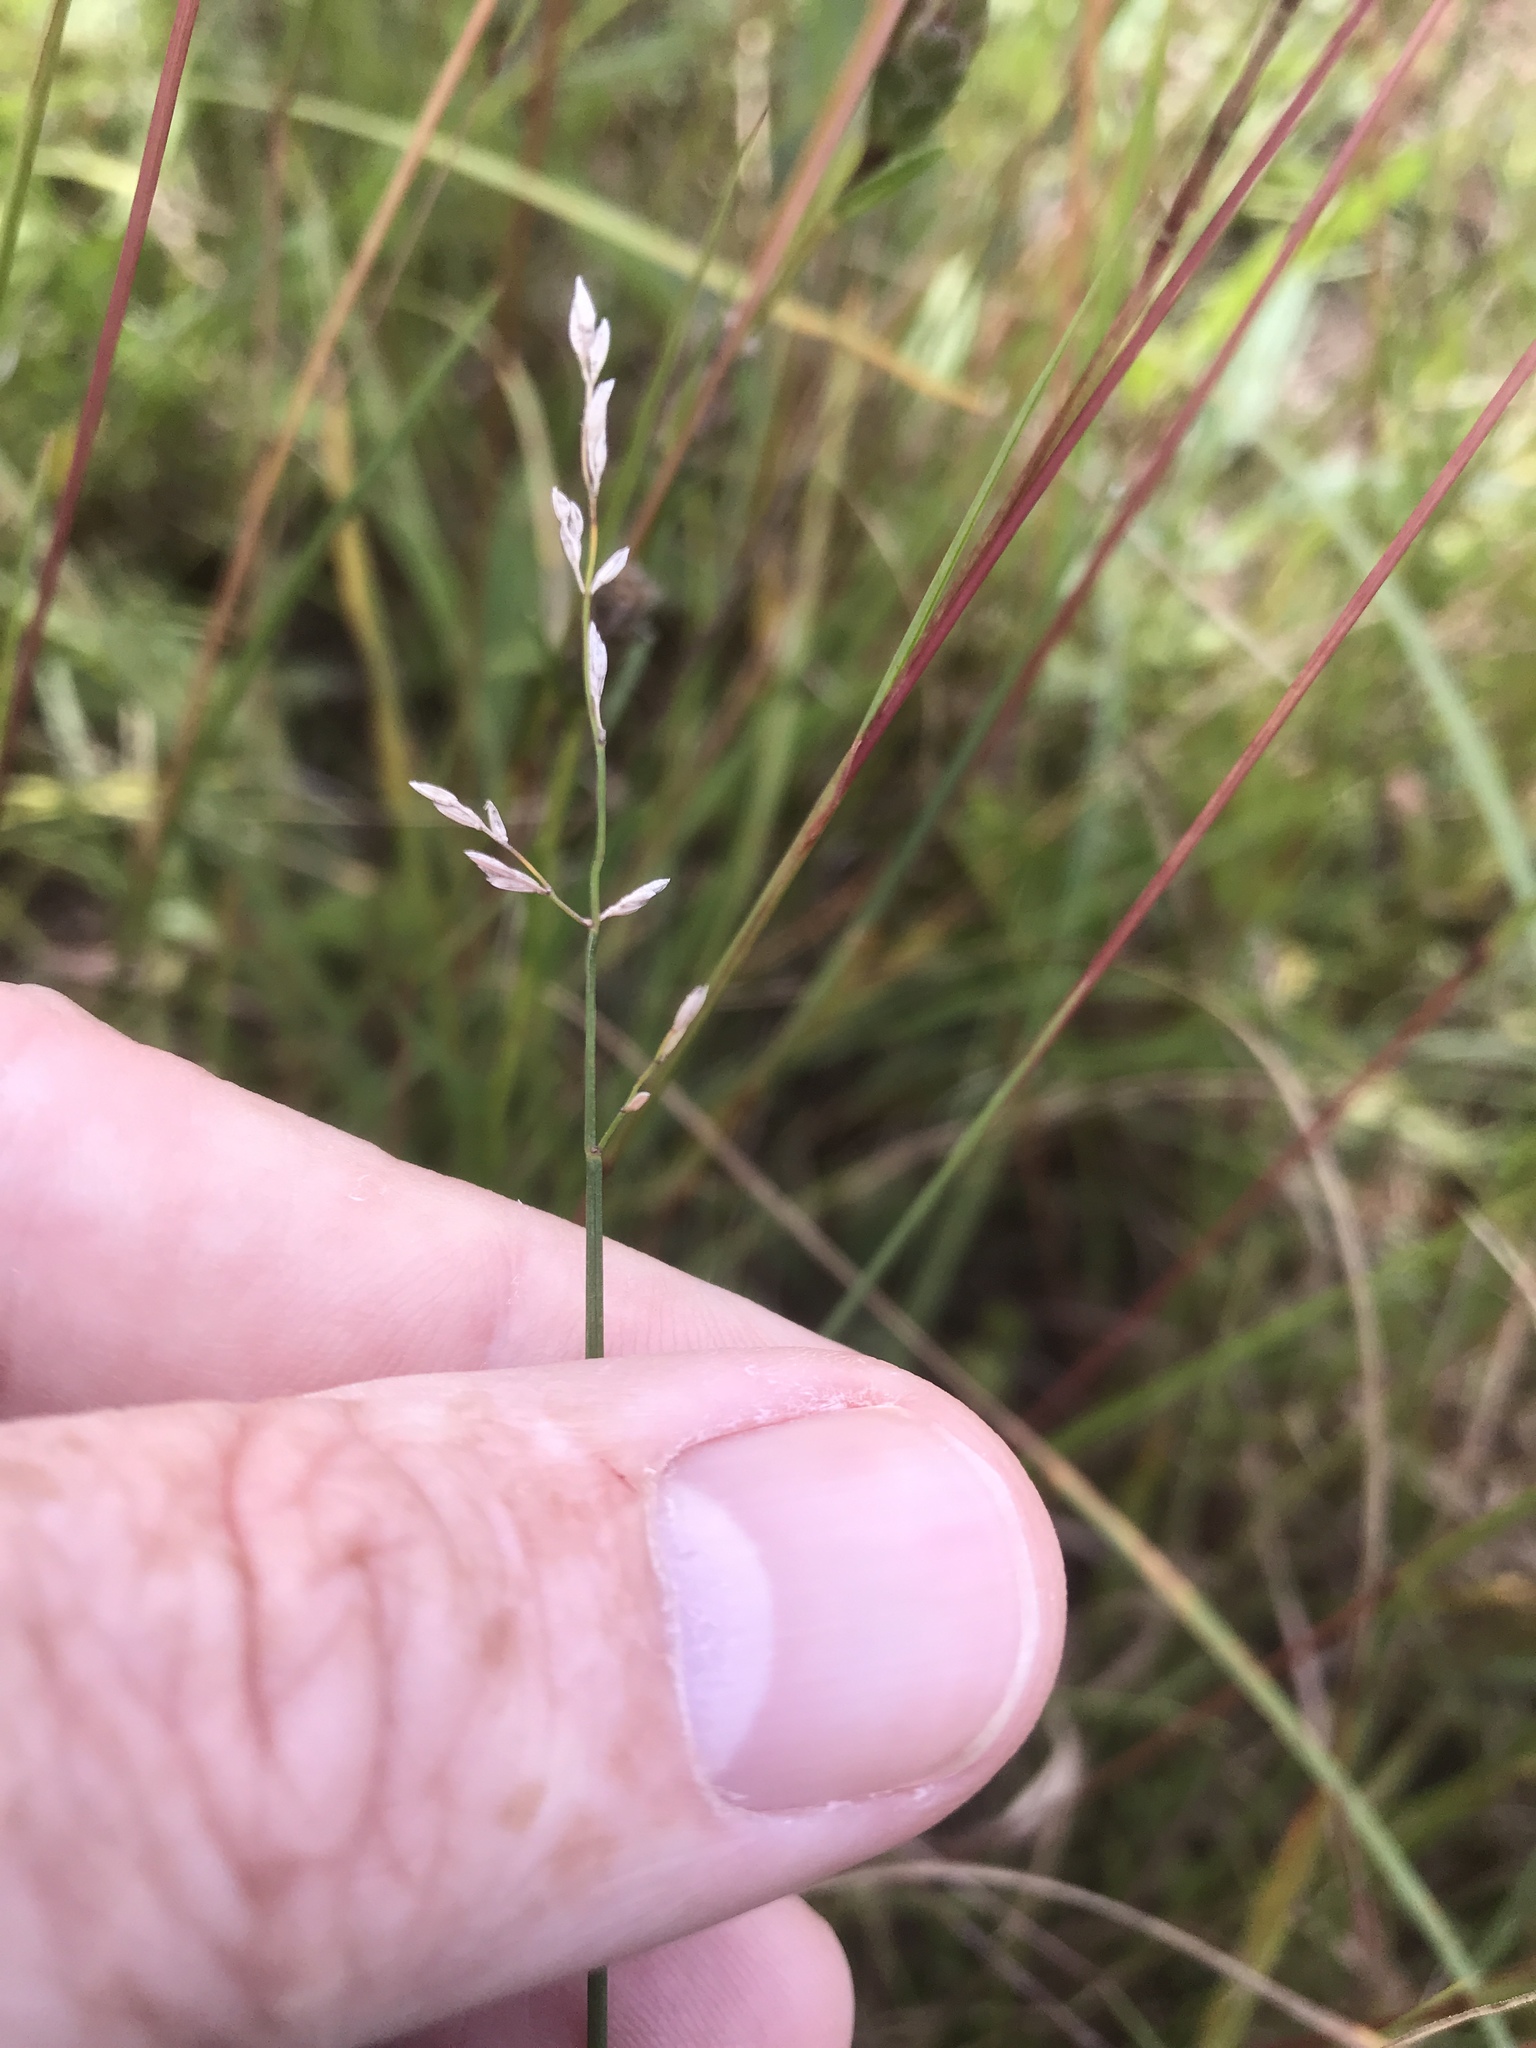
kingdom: Plantae
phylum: Tracheophyta
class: Liliopsida
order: Poales
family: Poaceae
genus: Poa
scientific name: Poa compressa
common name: Canada bluegrass
